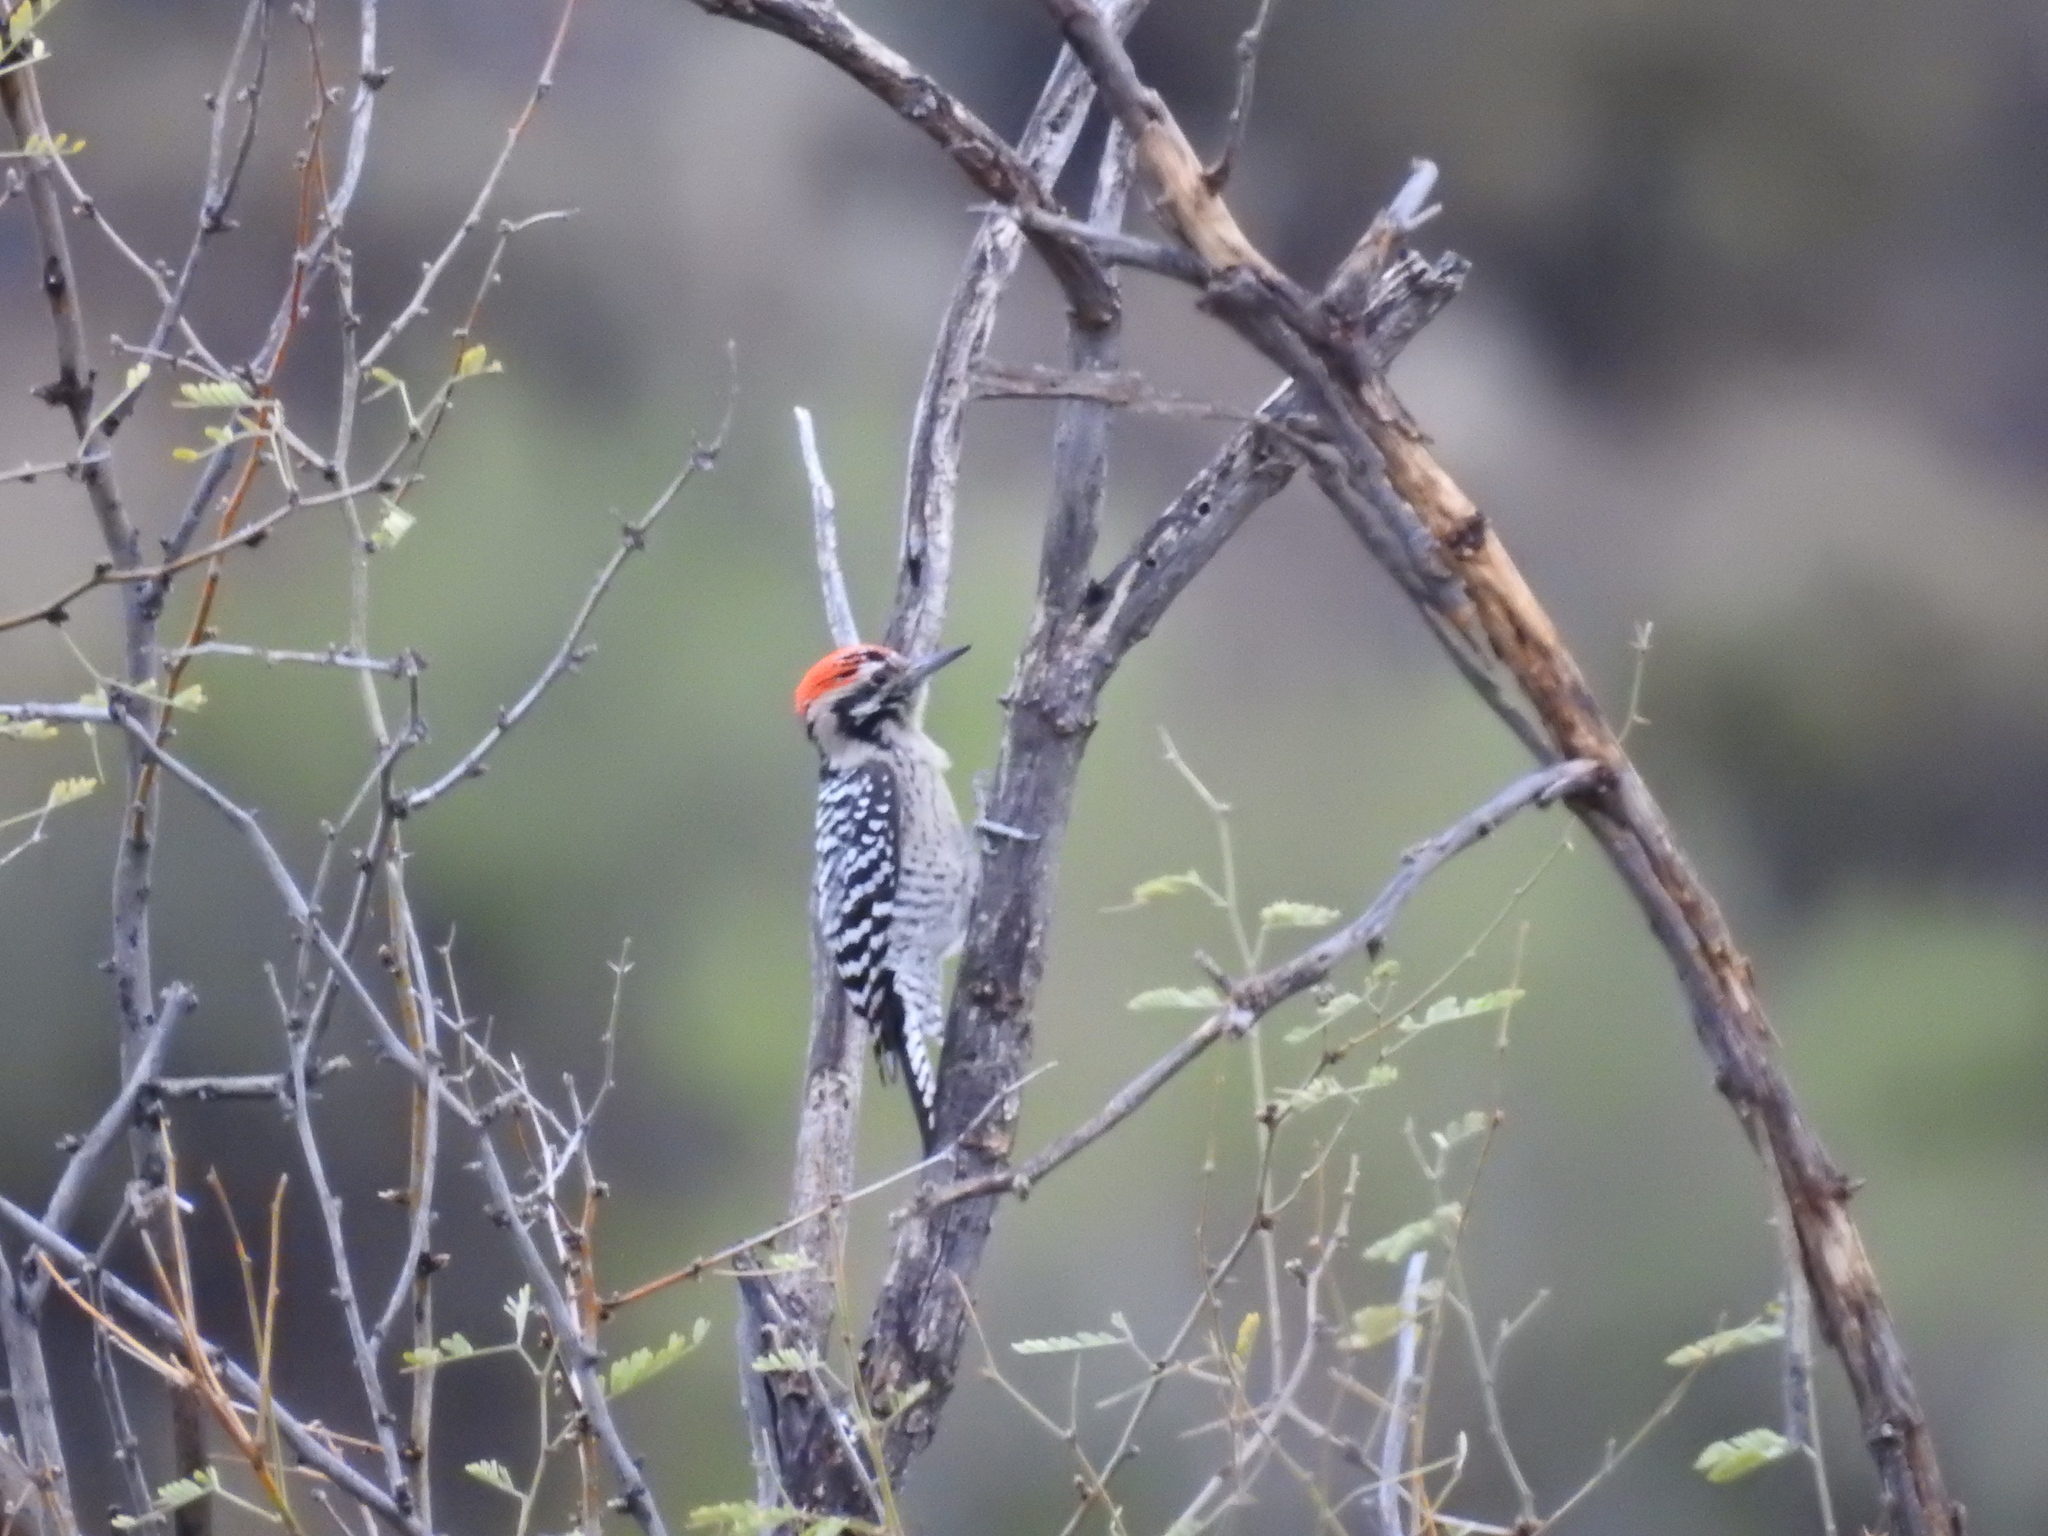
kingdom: Animalia
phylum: Chordata
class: Aves
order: Piciformes
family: Picidae
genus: Dryobates
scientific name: Dryobates scalaris
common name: Ladder-backed woodpecker
